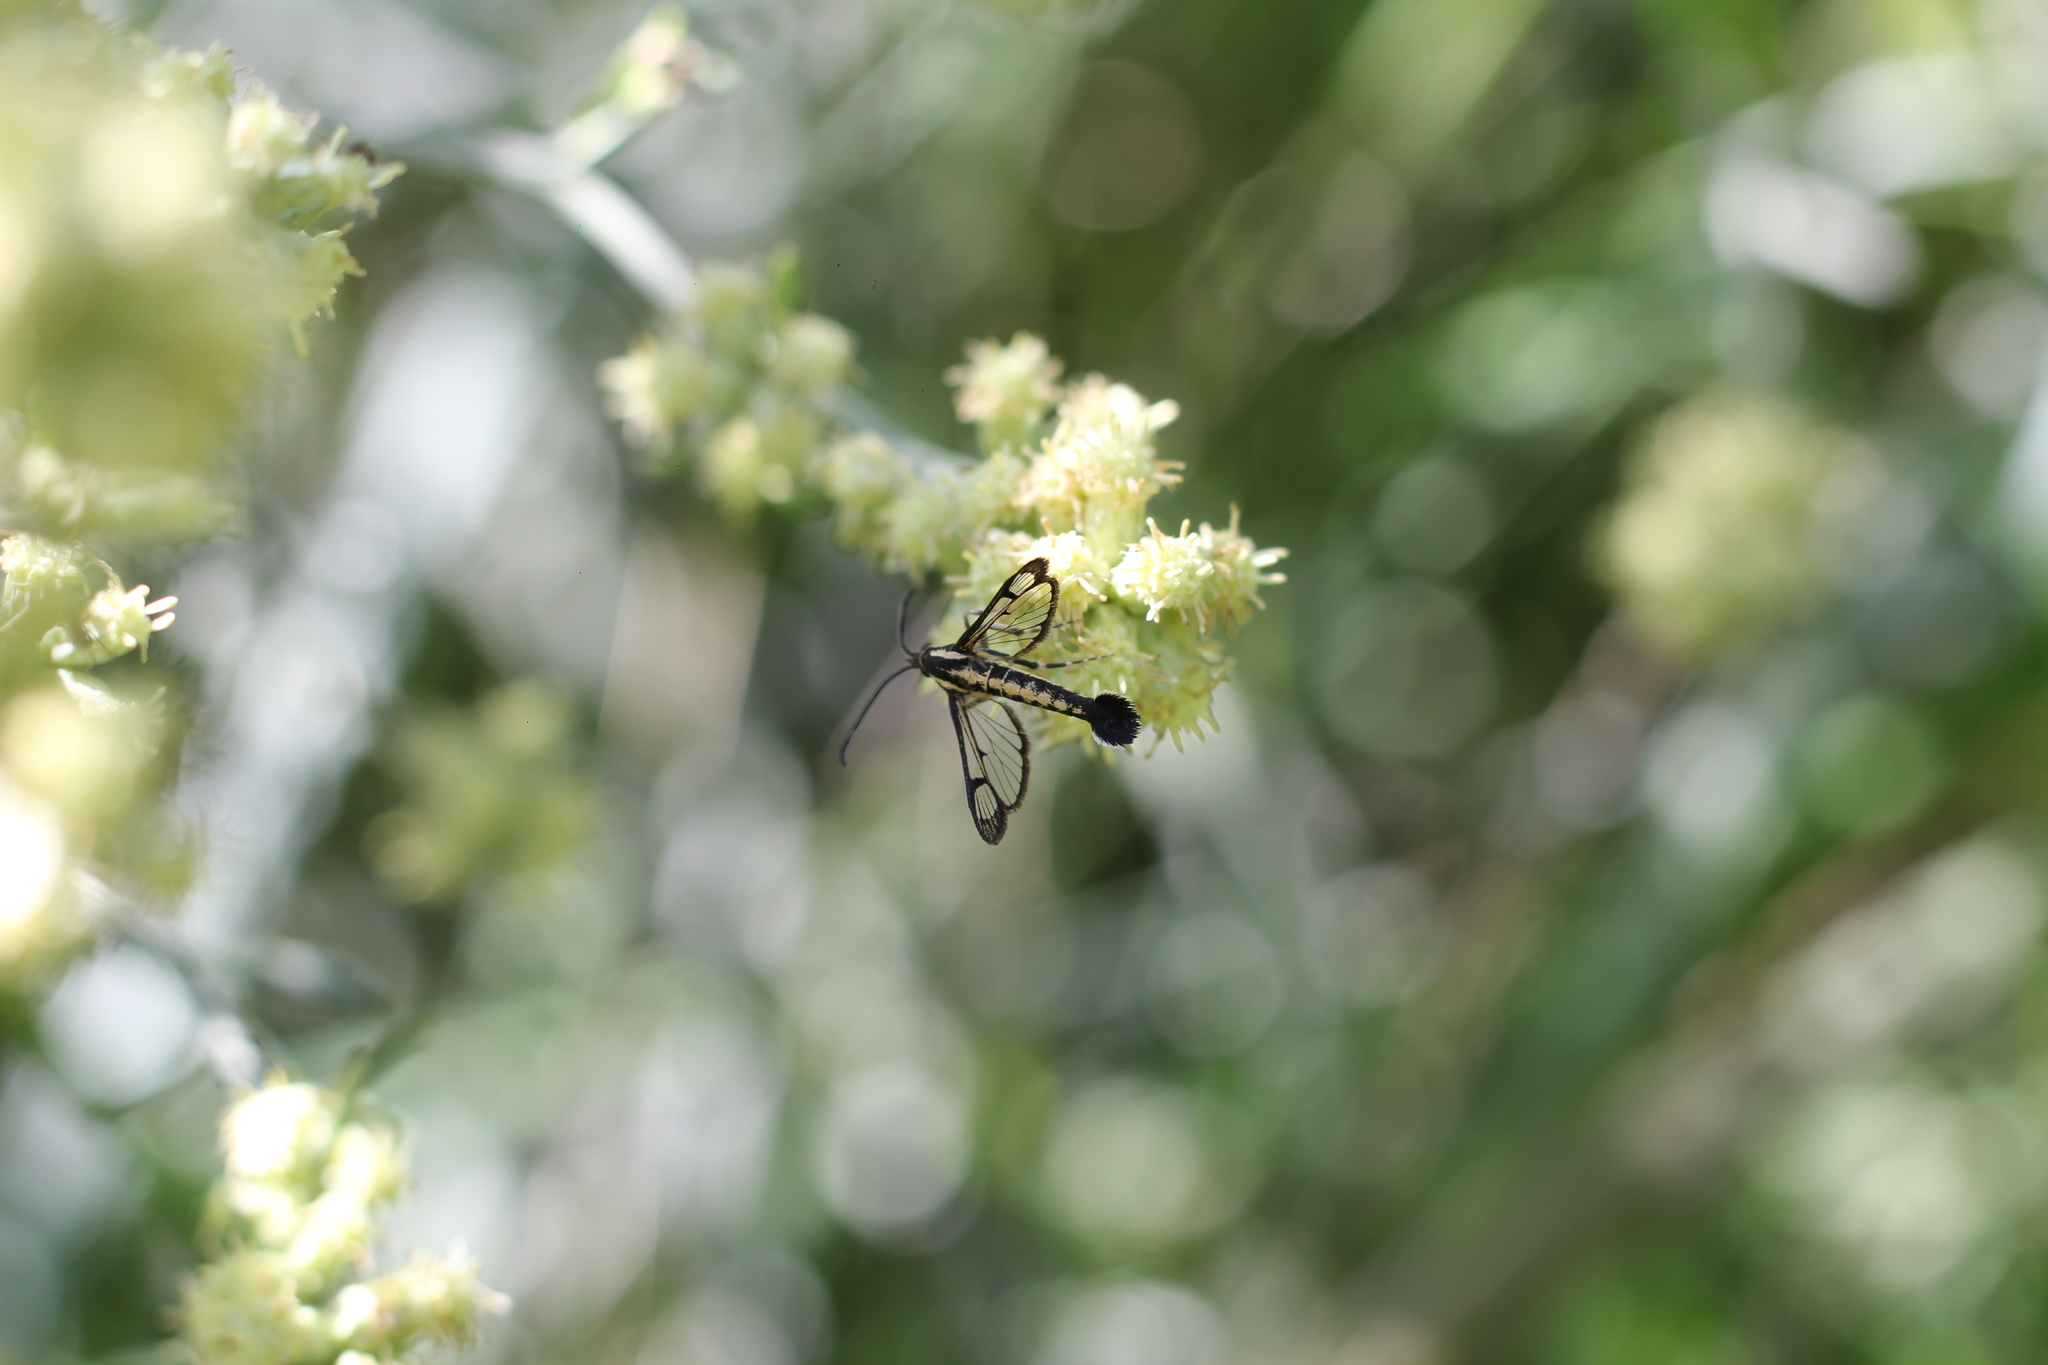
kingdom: Animalia
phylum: Arthropoda
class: Insecta
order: Lepidoptera
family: Sesiidae
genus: Carmenta
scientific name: Carmenta wagneri
